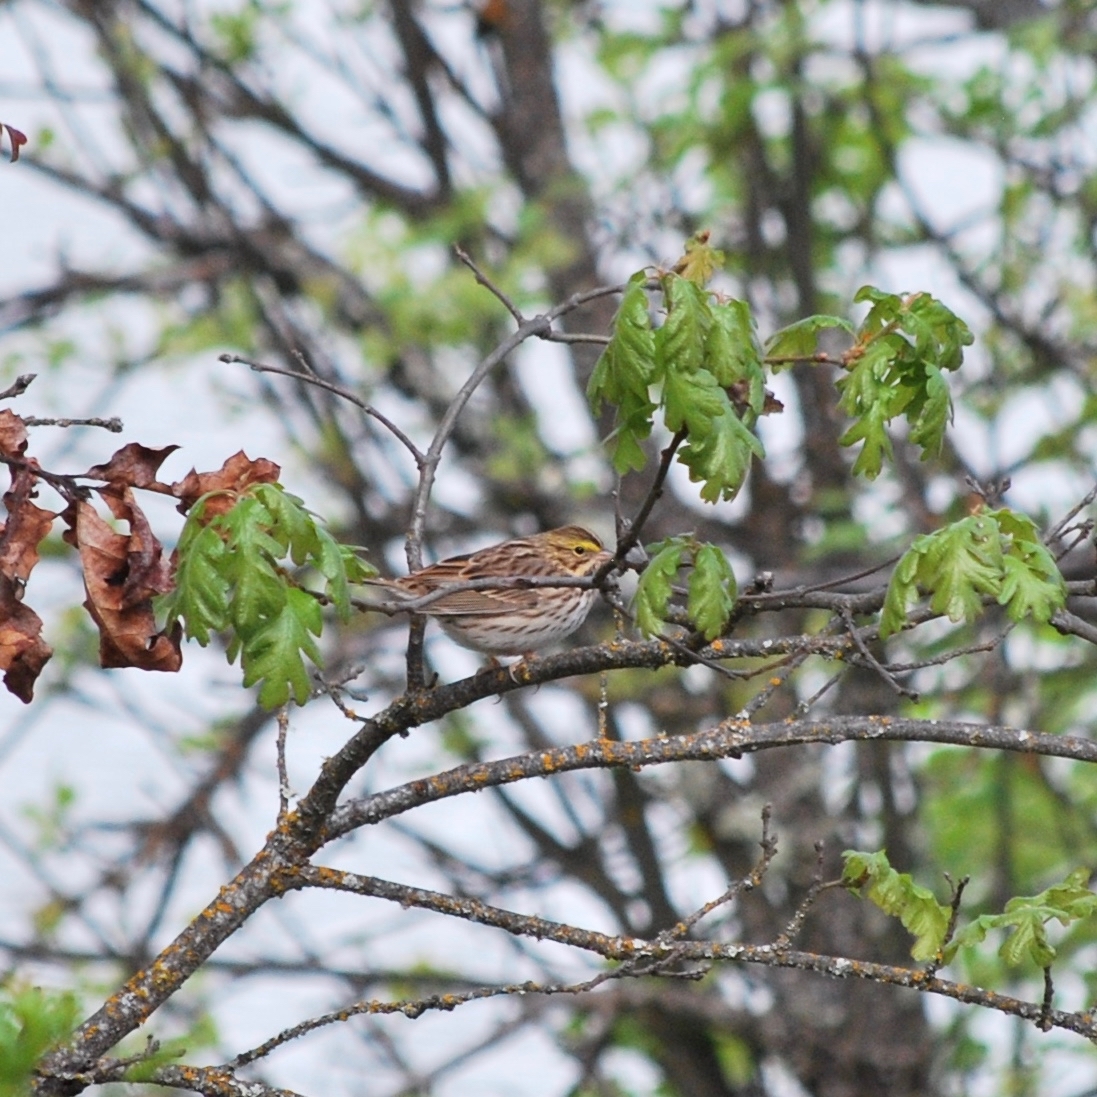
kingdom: Animalia
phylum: Chordata
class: Aves
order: Passeriformes
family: Passerellidae
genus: Passerculus
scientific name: Passerculus sandwichensis
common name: Savannah sparrow
